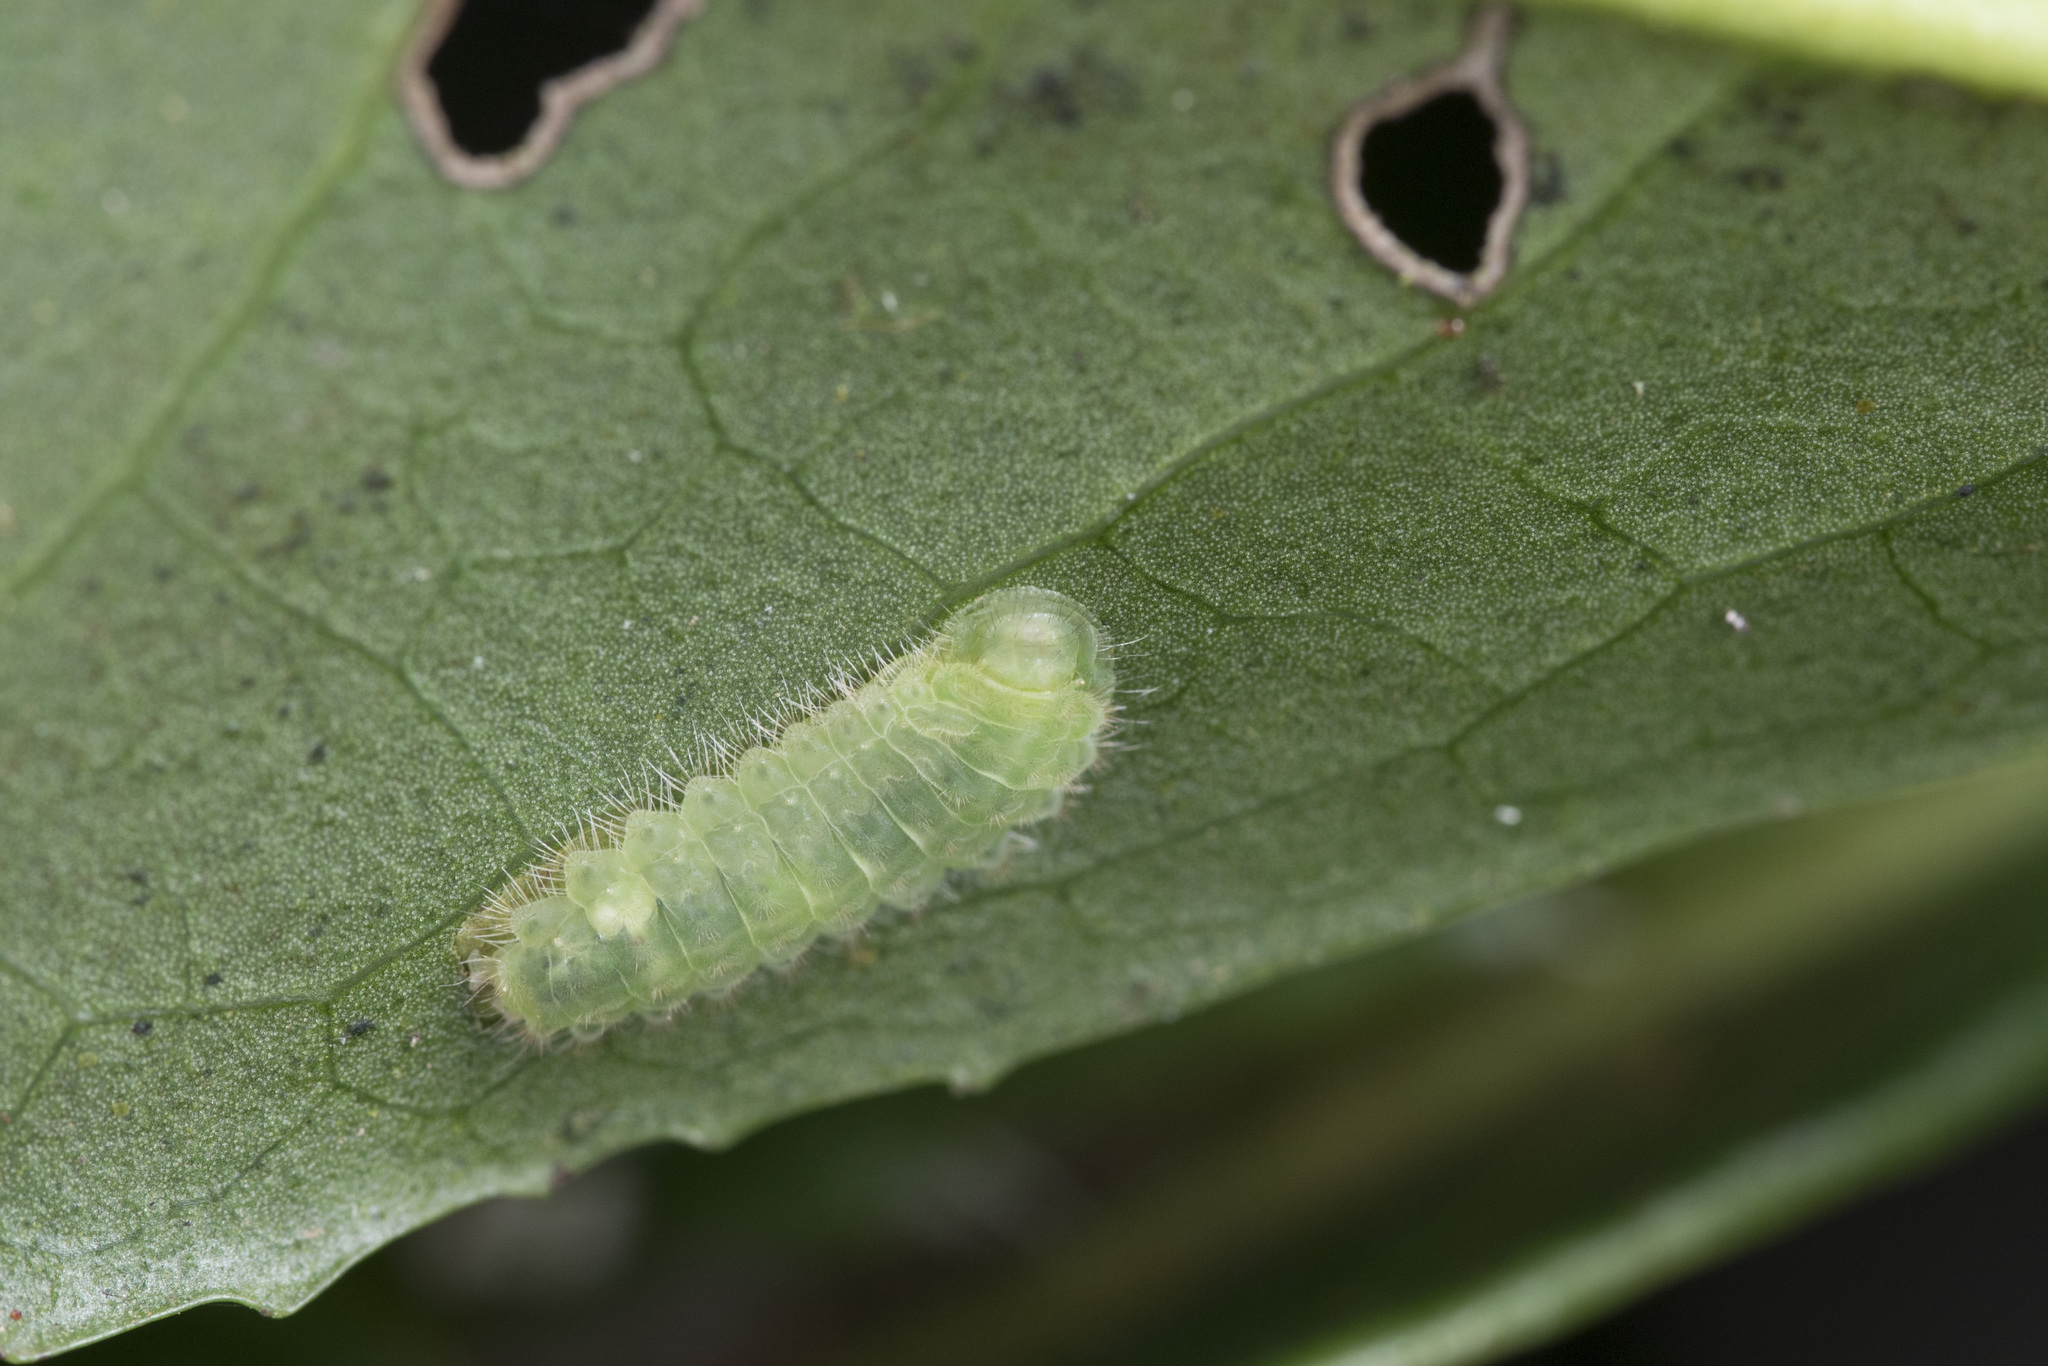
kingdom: Animalia
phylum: Arthropoda
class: Insecta
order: Lepidoptera
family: Zygaenidae
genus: Heteropan
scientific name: Heteropan submacula
